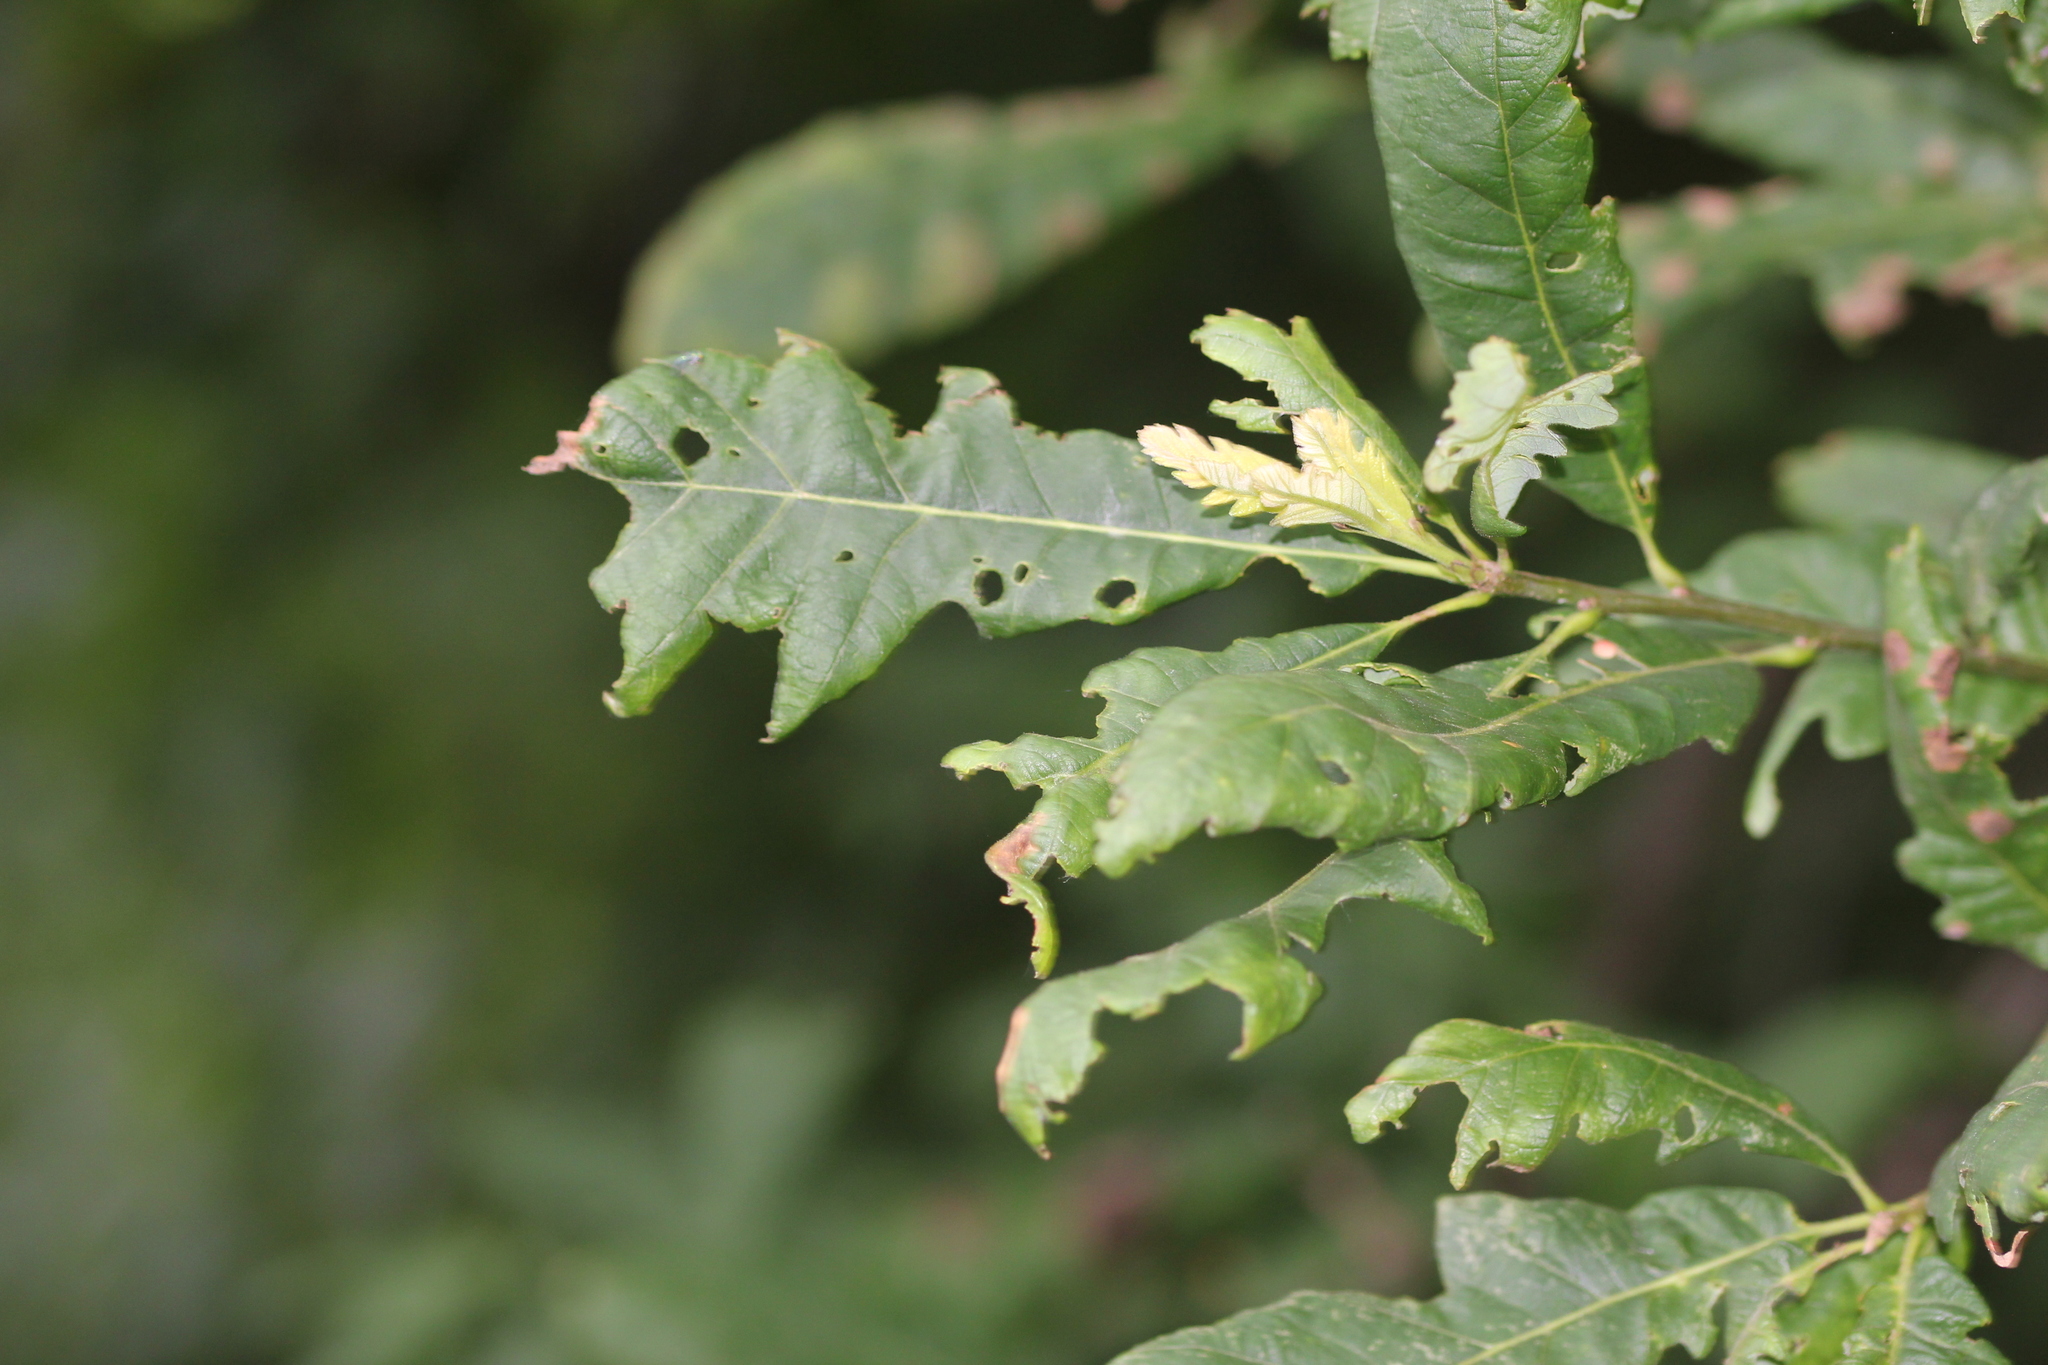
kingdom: Plantae
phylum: Tracheophyta
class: Magnoliopsida
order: Fagales
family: Fagaceae
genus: Quercus
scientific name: Quercus macrocarpa
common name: Bur oak
